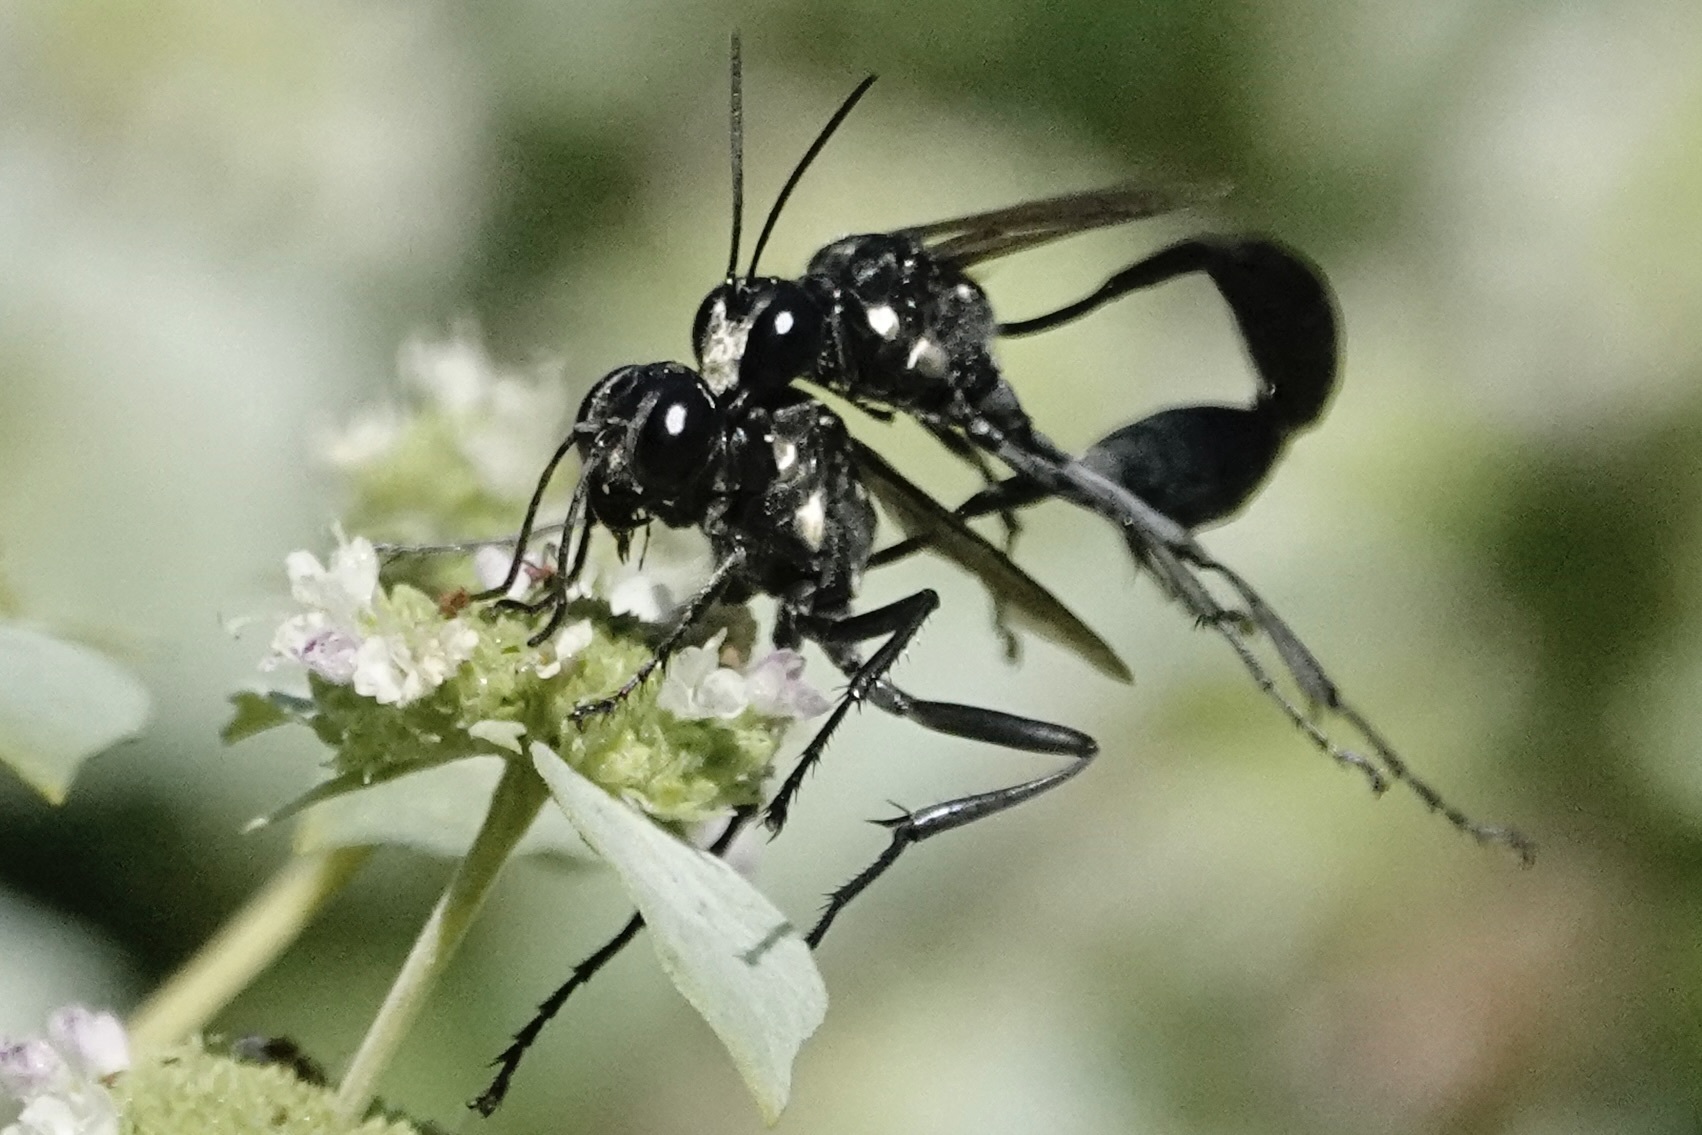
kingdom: Animalia
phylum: Arthropoda
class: Insecta
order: Hymenoptera
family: Sphecidae
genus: Eremnophila
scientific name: Eremnophila aureonotata
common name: Gold-marked thread-waisted wasp
